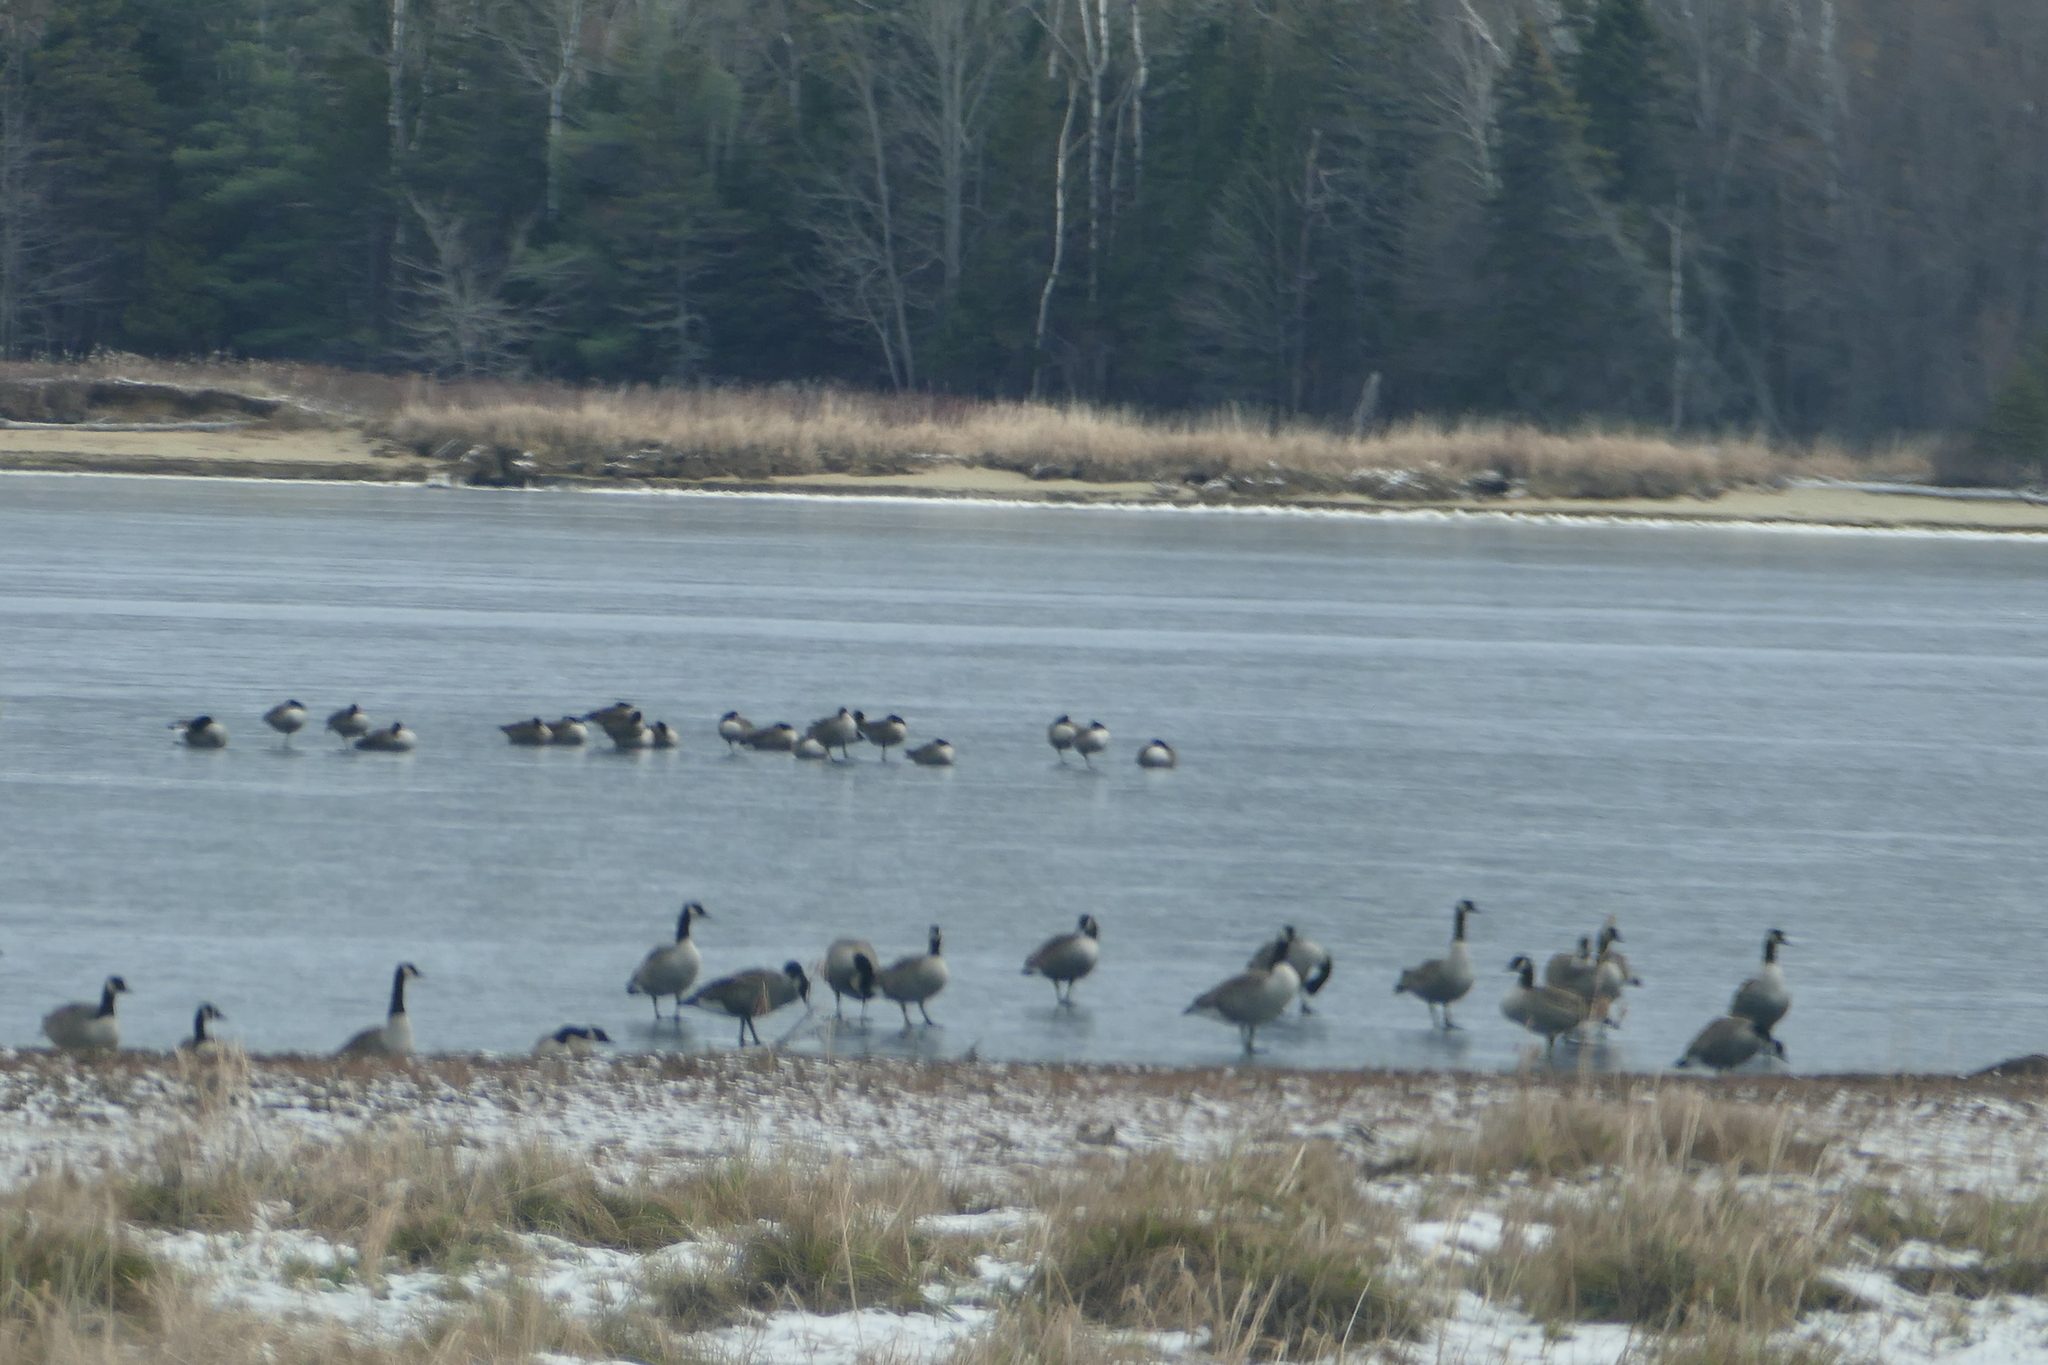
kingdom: Animalia
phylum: Chordata
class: Aves
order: Anseriformes
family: Anatidae
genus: Branta
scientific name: Branta canadensis
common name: Canada goose
